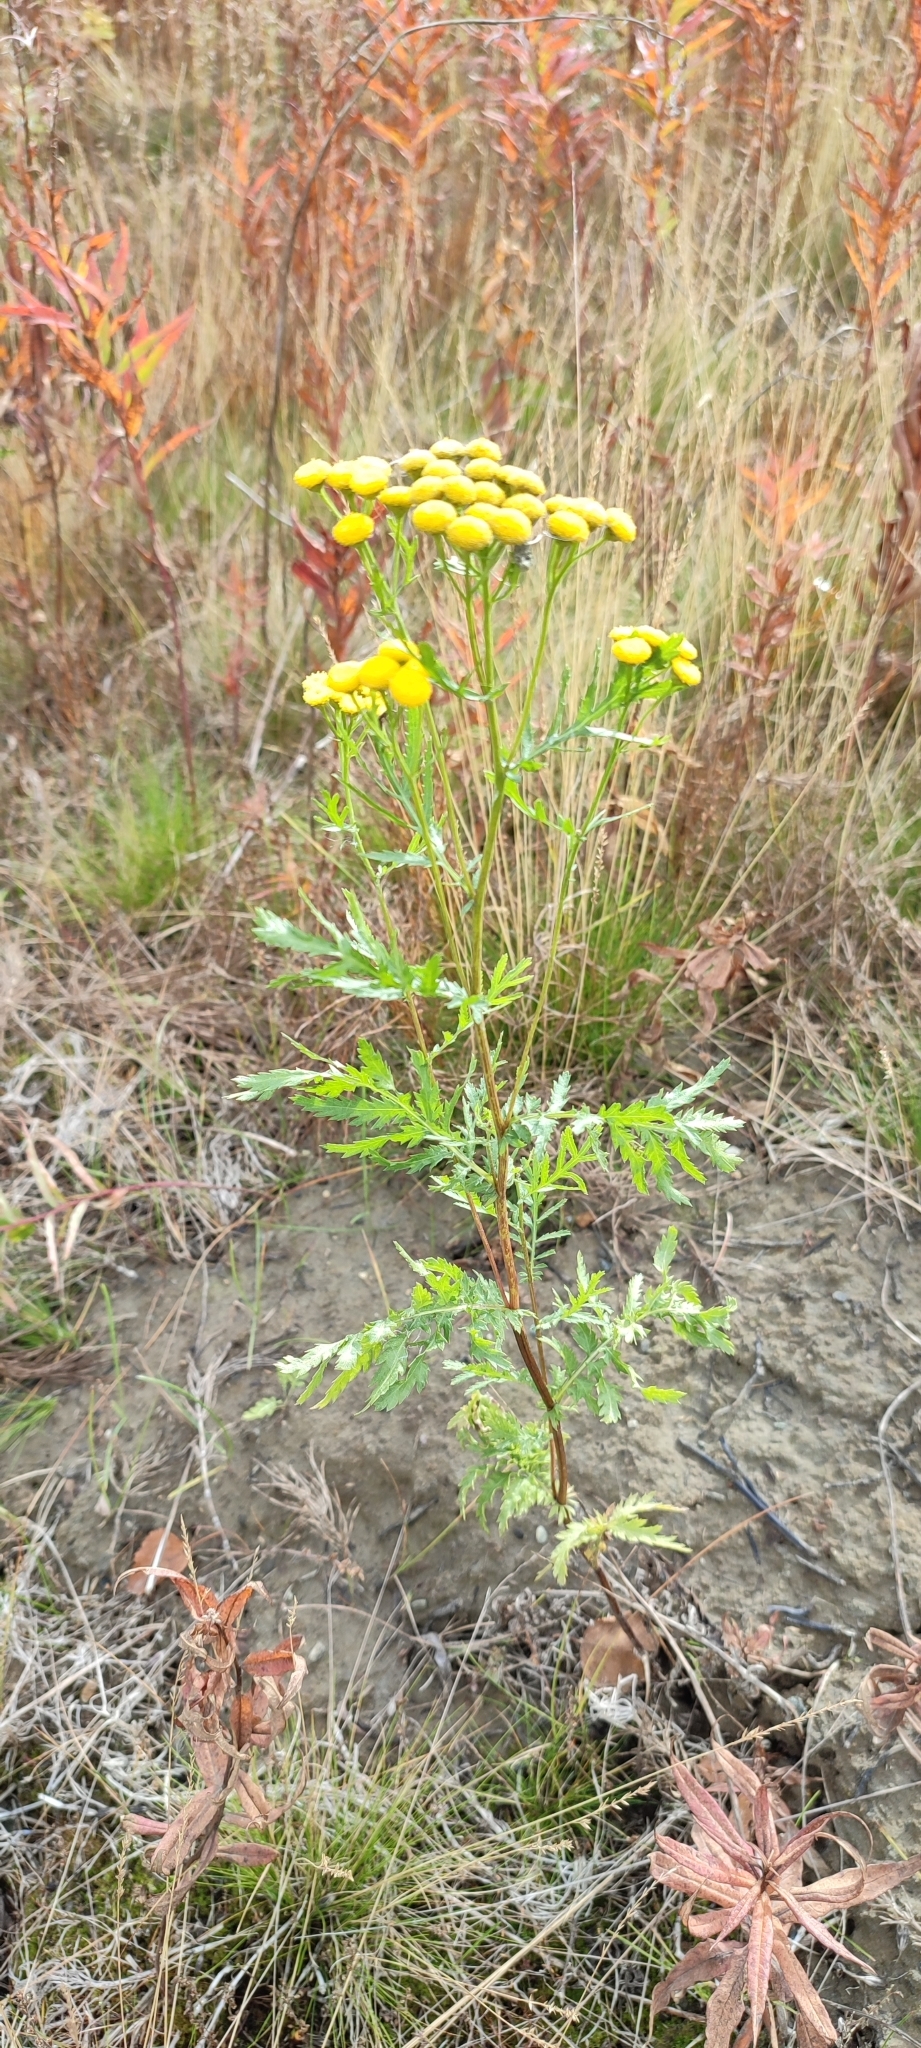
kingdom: Plantae
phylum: Tracheophyta
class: Magnoliopsida
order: Asterales
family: Asteraceae
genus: Tanacetum
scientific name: Tanacetum vulgare
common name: Common tansy
